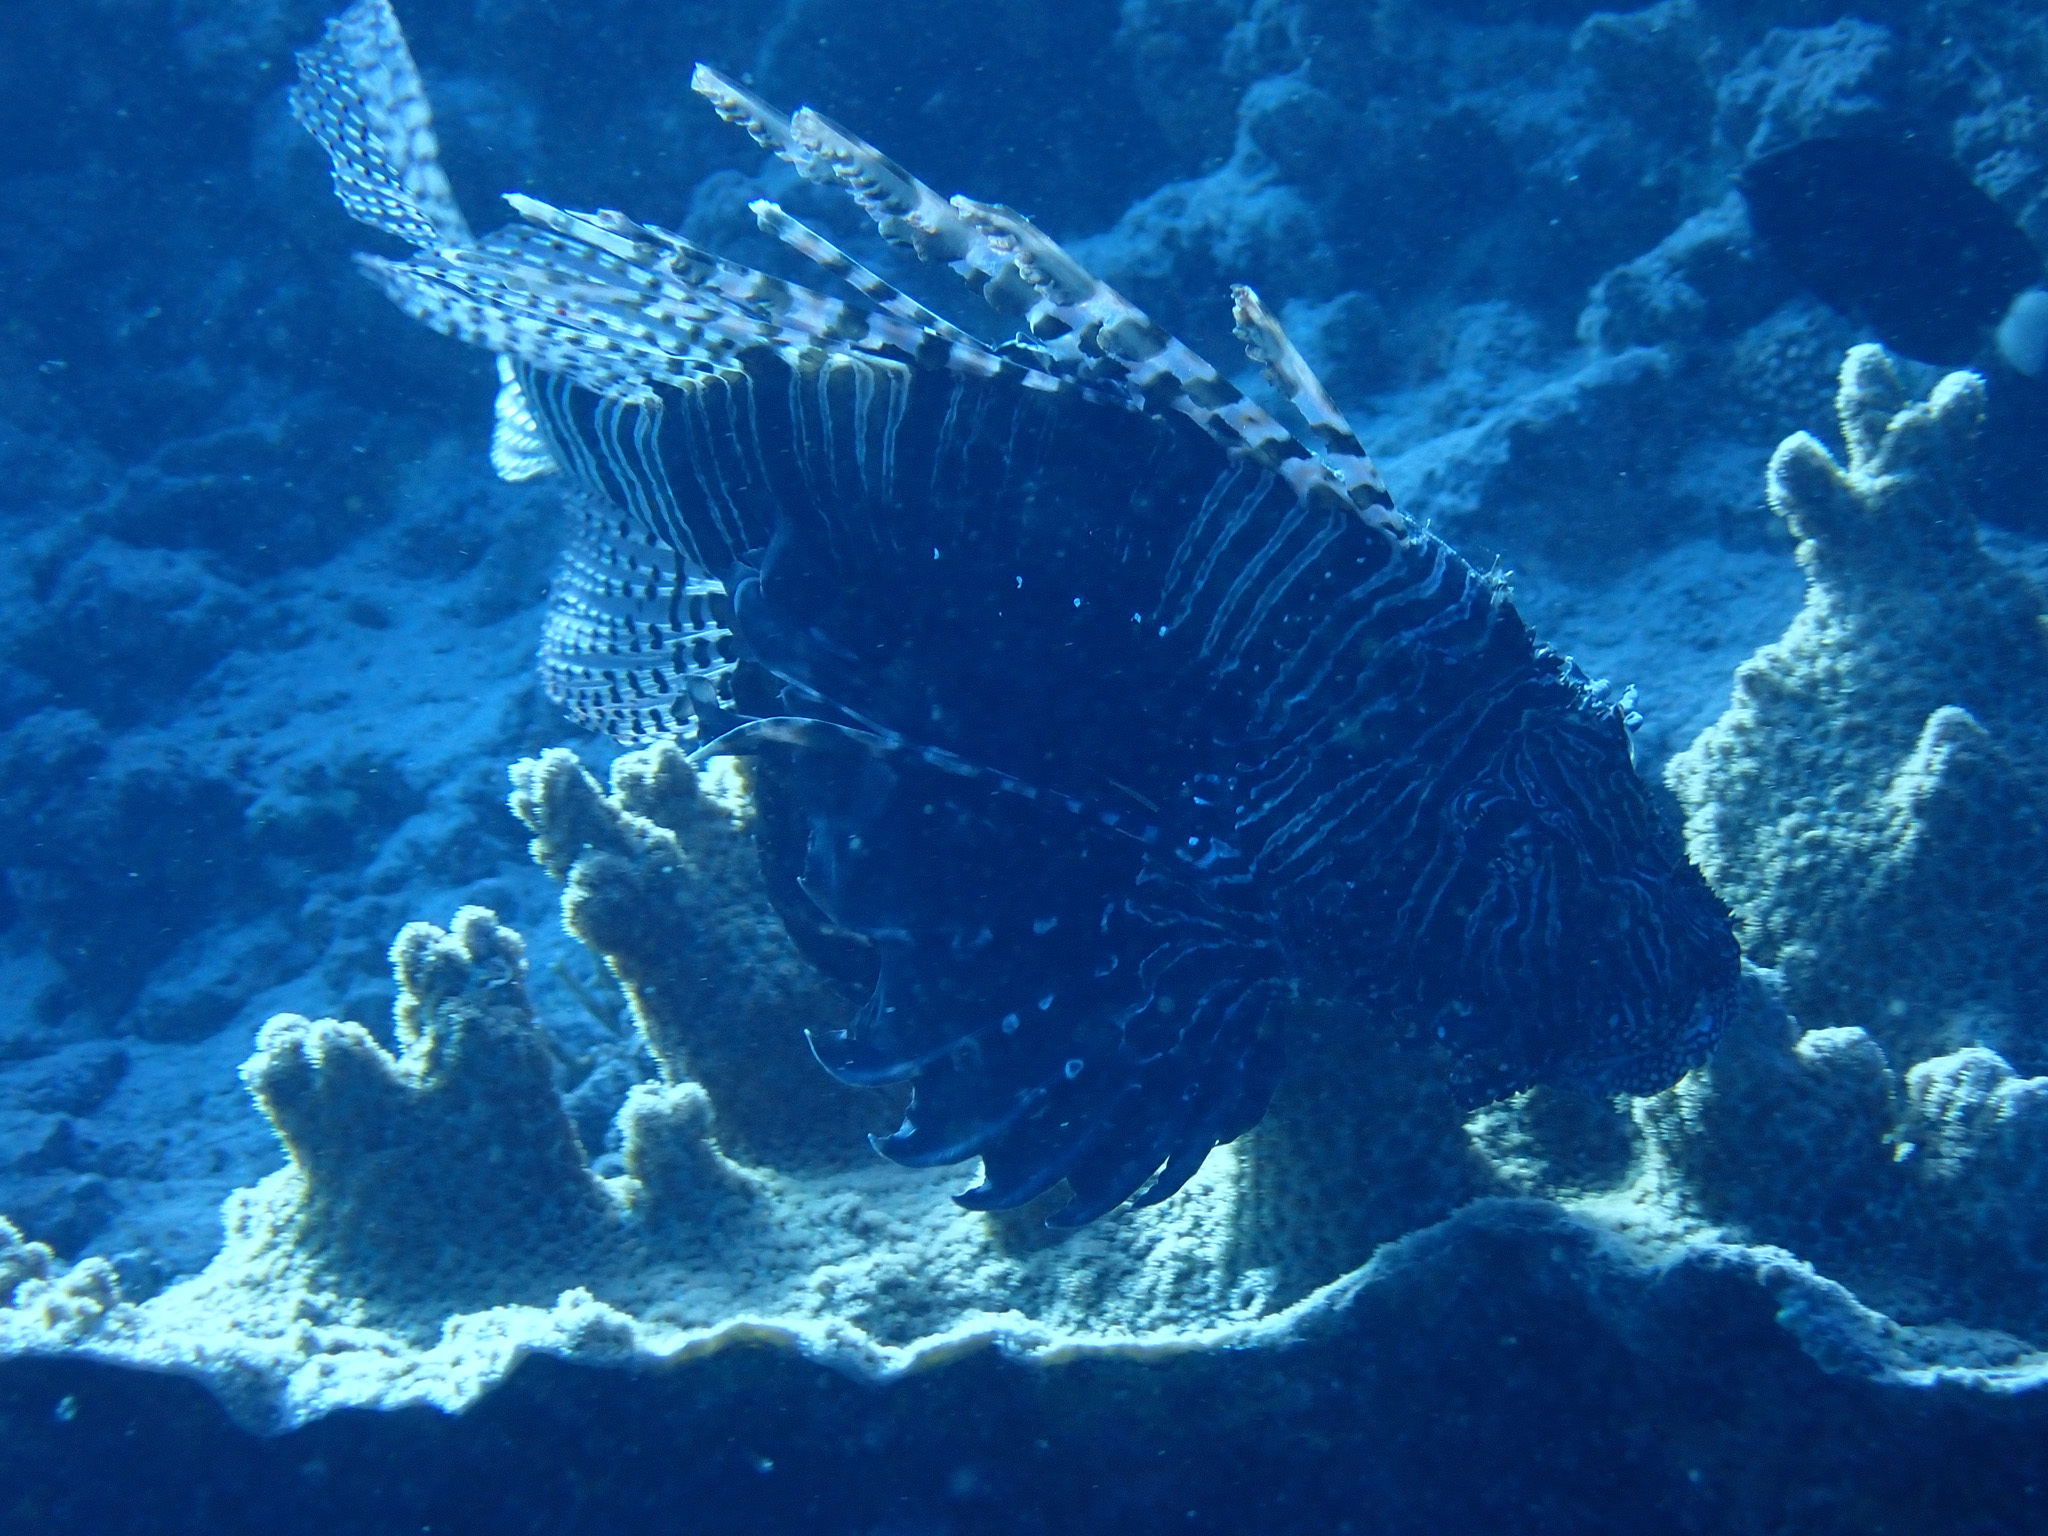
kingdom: Animalia
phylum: Chordata
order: Scorpaeniformes
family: Scorpaenidae
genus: Pterois
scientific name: Pterois miles
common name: Devil firefish
